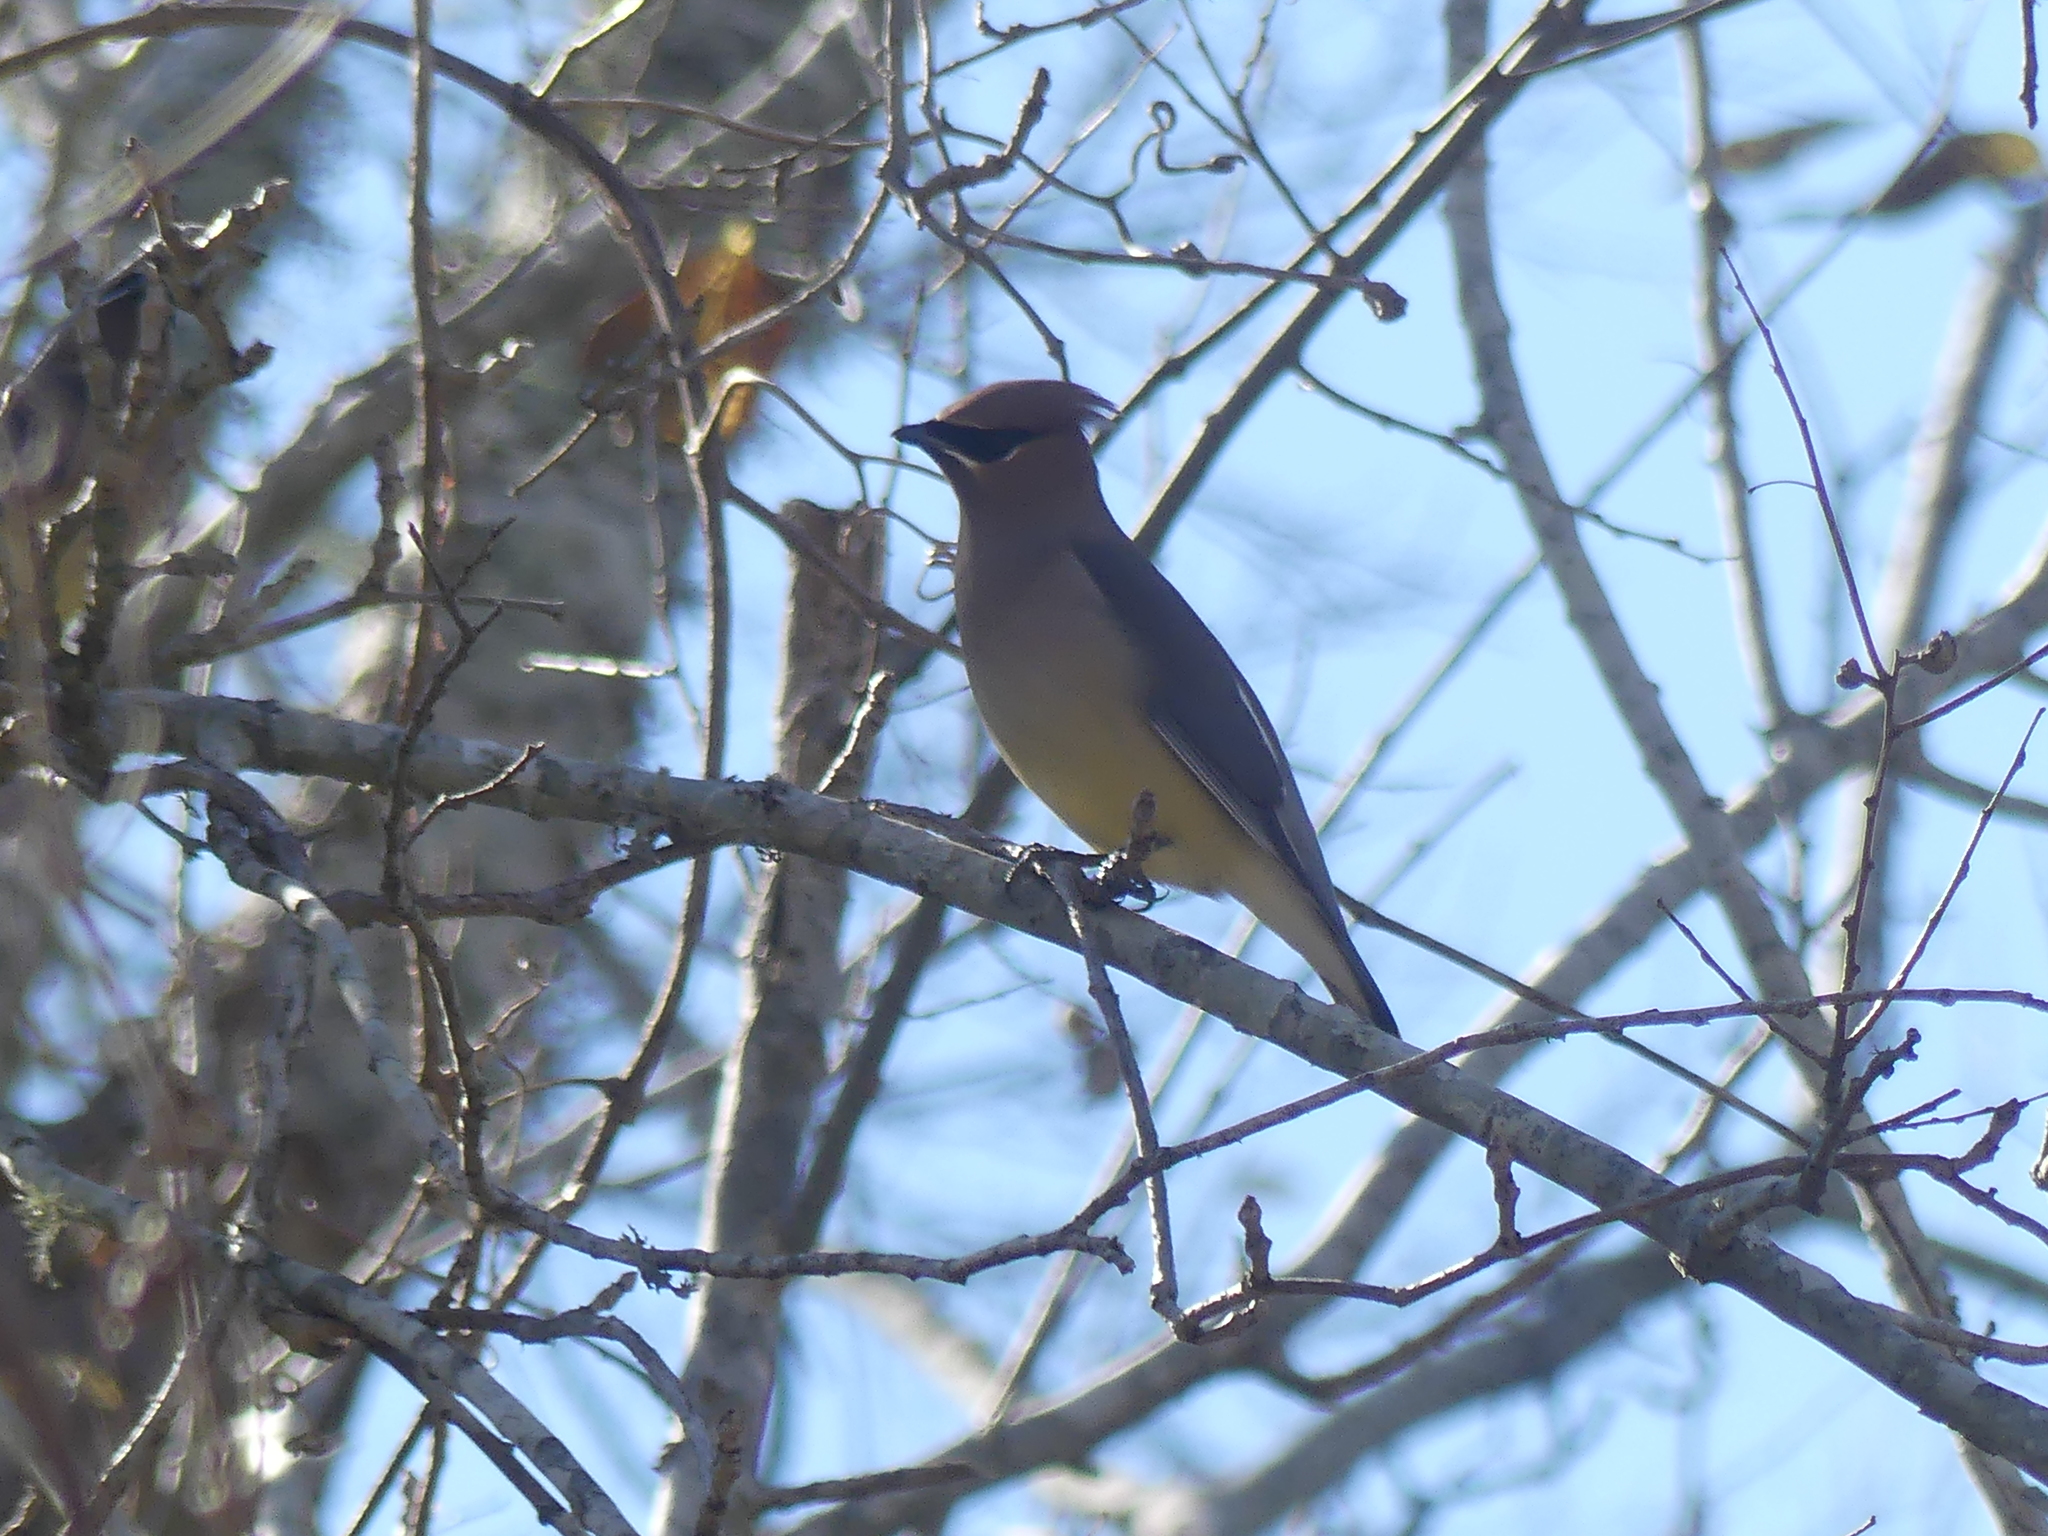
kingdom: Animalia
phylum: Chordata
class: Aves
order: Passeriformes
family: Bombycillidae
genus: Bombycilla
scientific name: Bombycilla cedrorum
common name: Cedar waxwing
